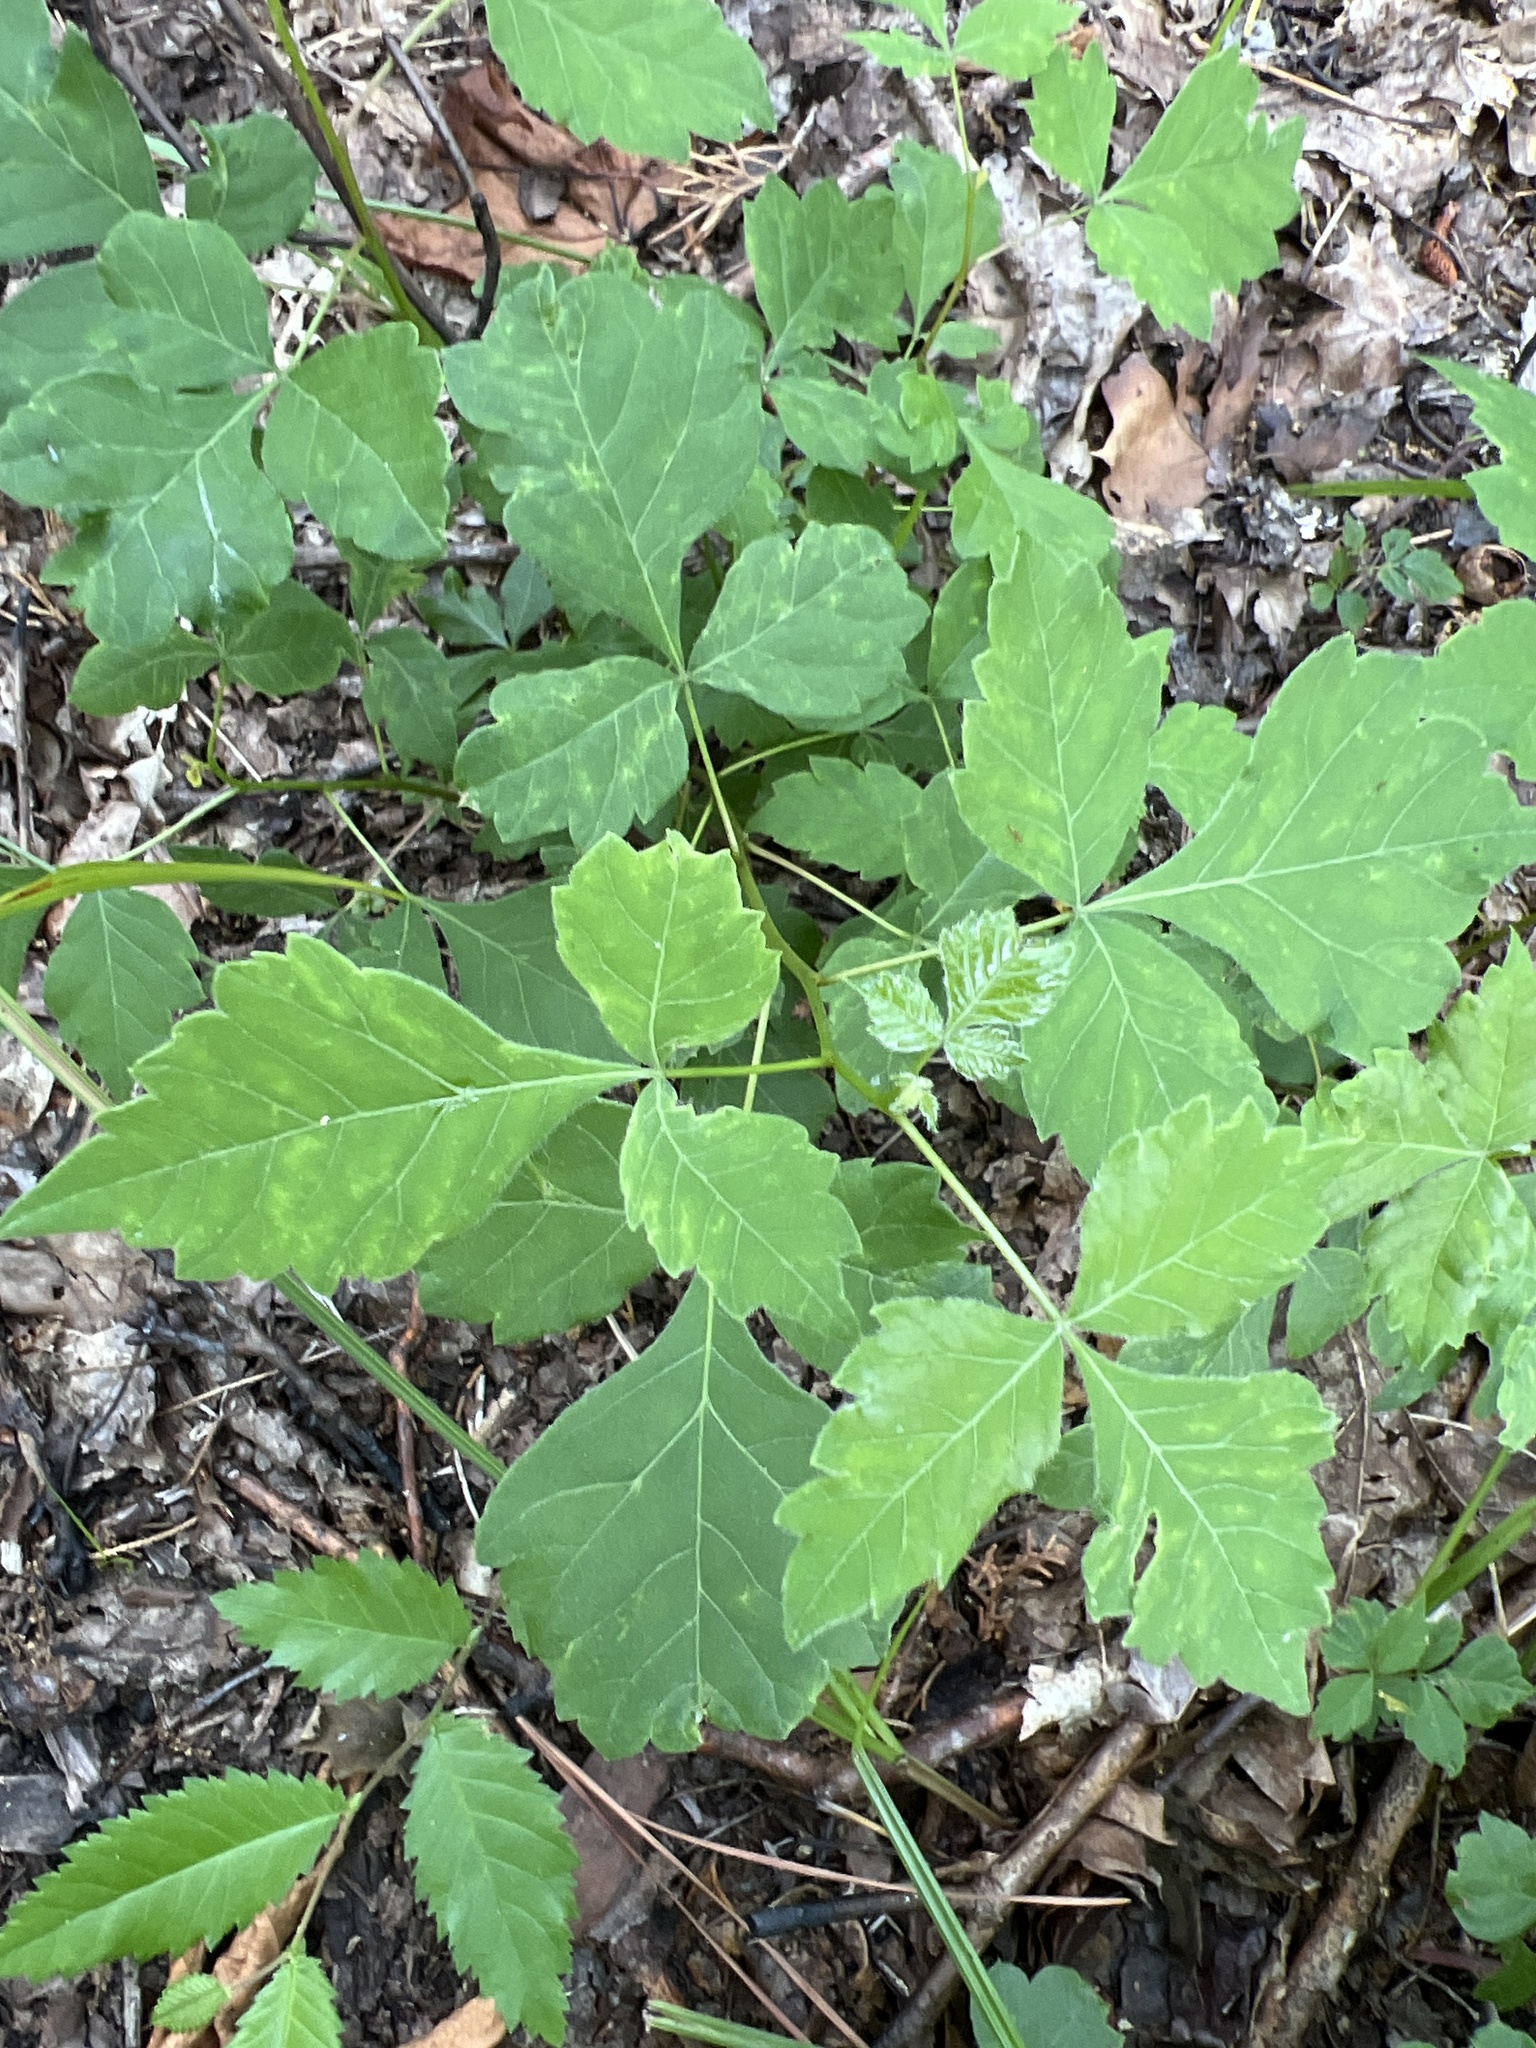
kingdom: Plantae
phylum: Tracheophyta
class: Magnoliopsida
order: Sapindales
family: Anacardiaceae
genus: Rhus
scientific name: Rhus aromatica
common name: Aromatic sumac
